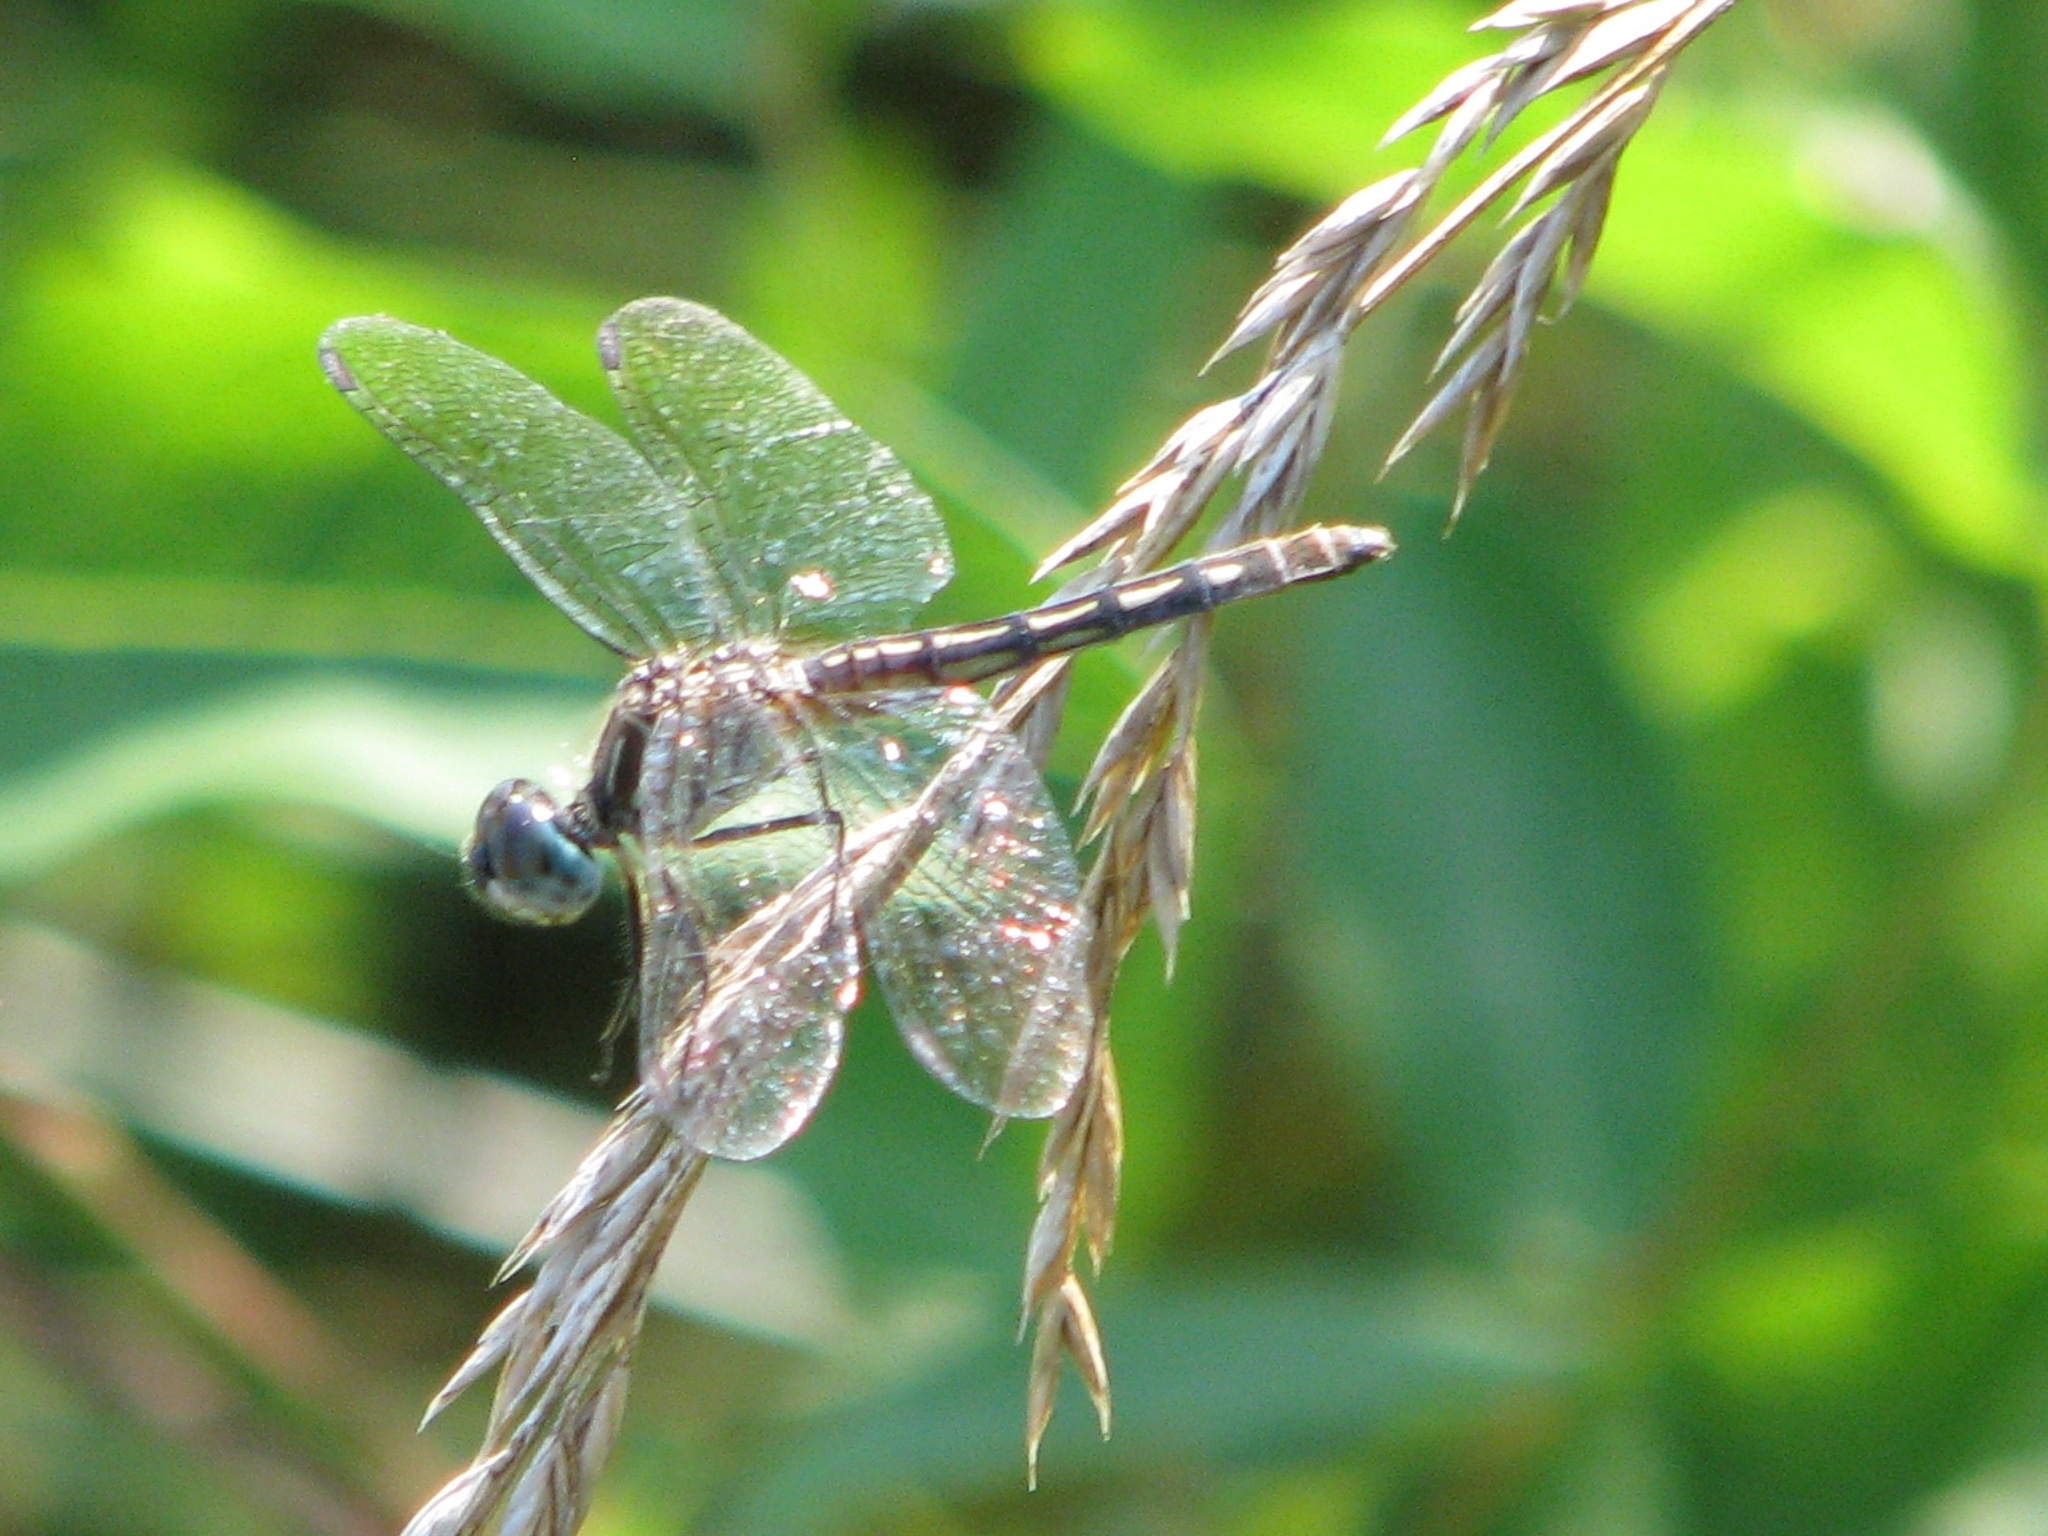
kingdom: Animalia
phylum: Arthropoda
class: Insecta
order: Odonata
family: Libellulidae
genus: Pachydiplax
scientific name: Pachydiplax longipennis
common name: Blue dasher
